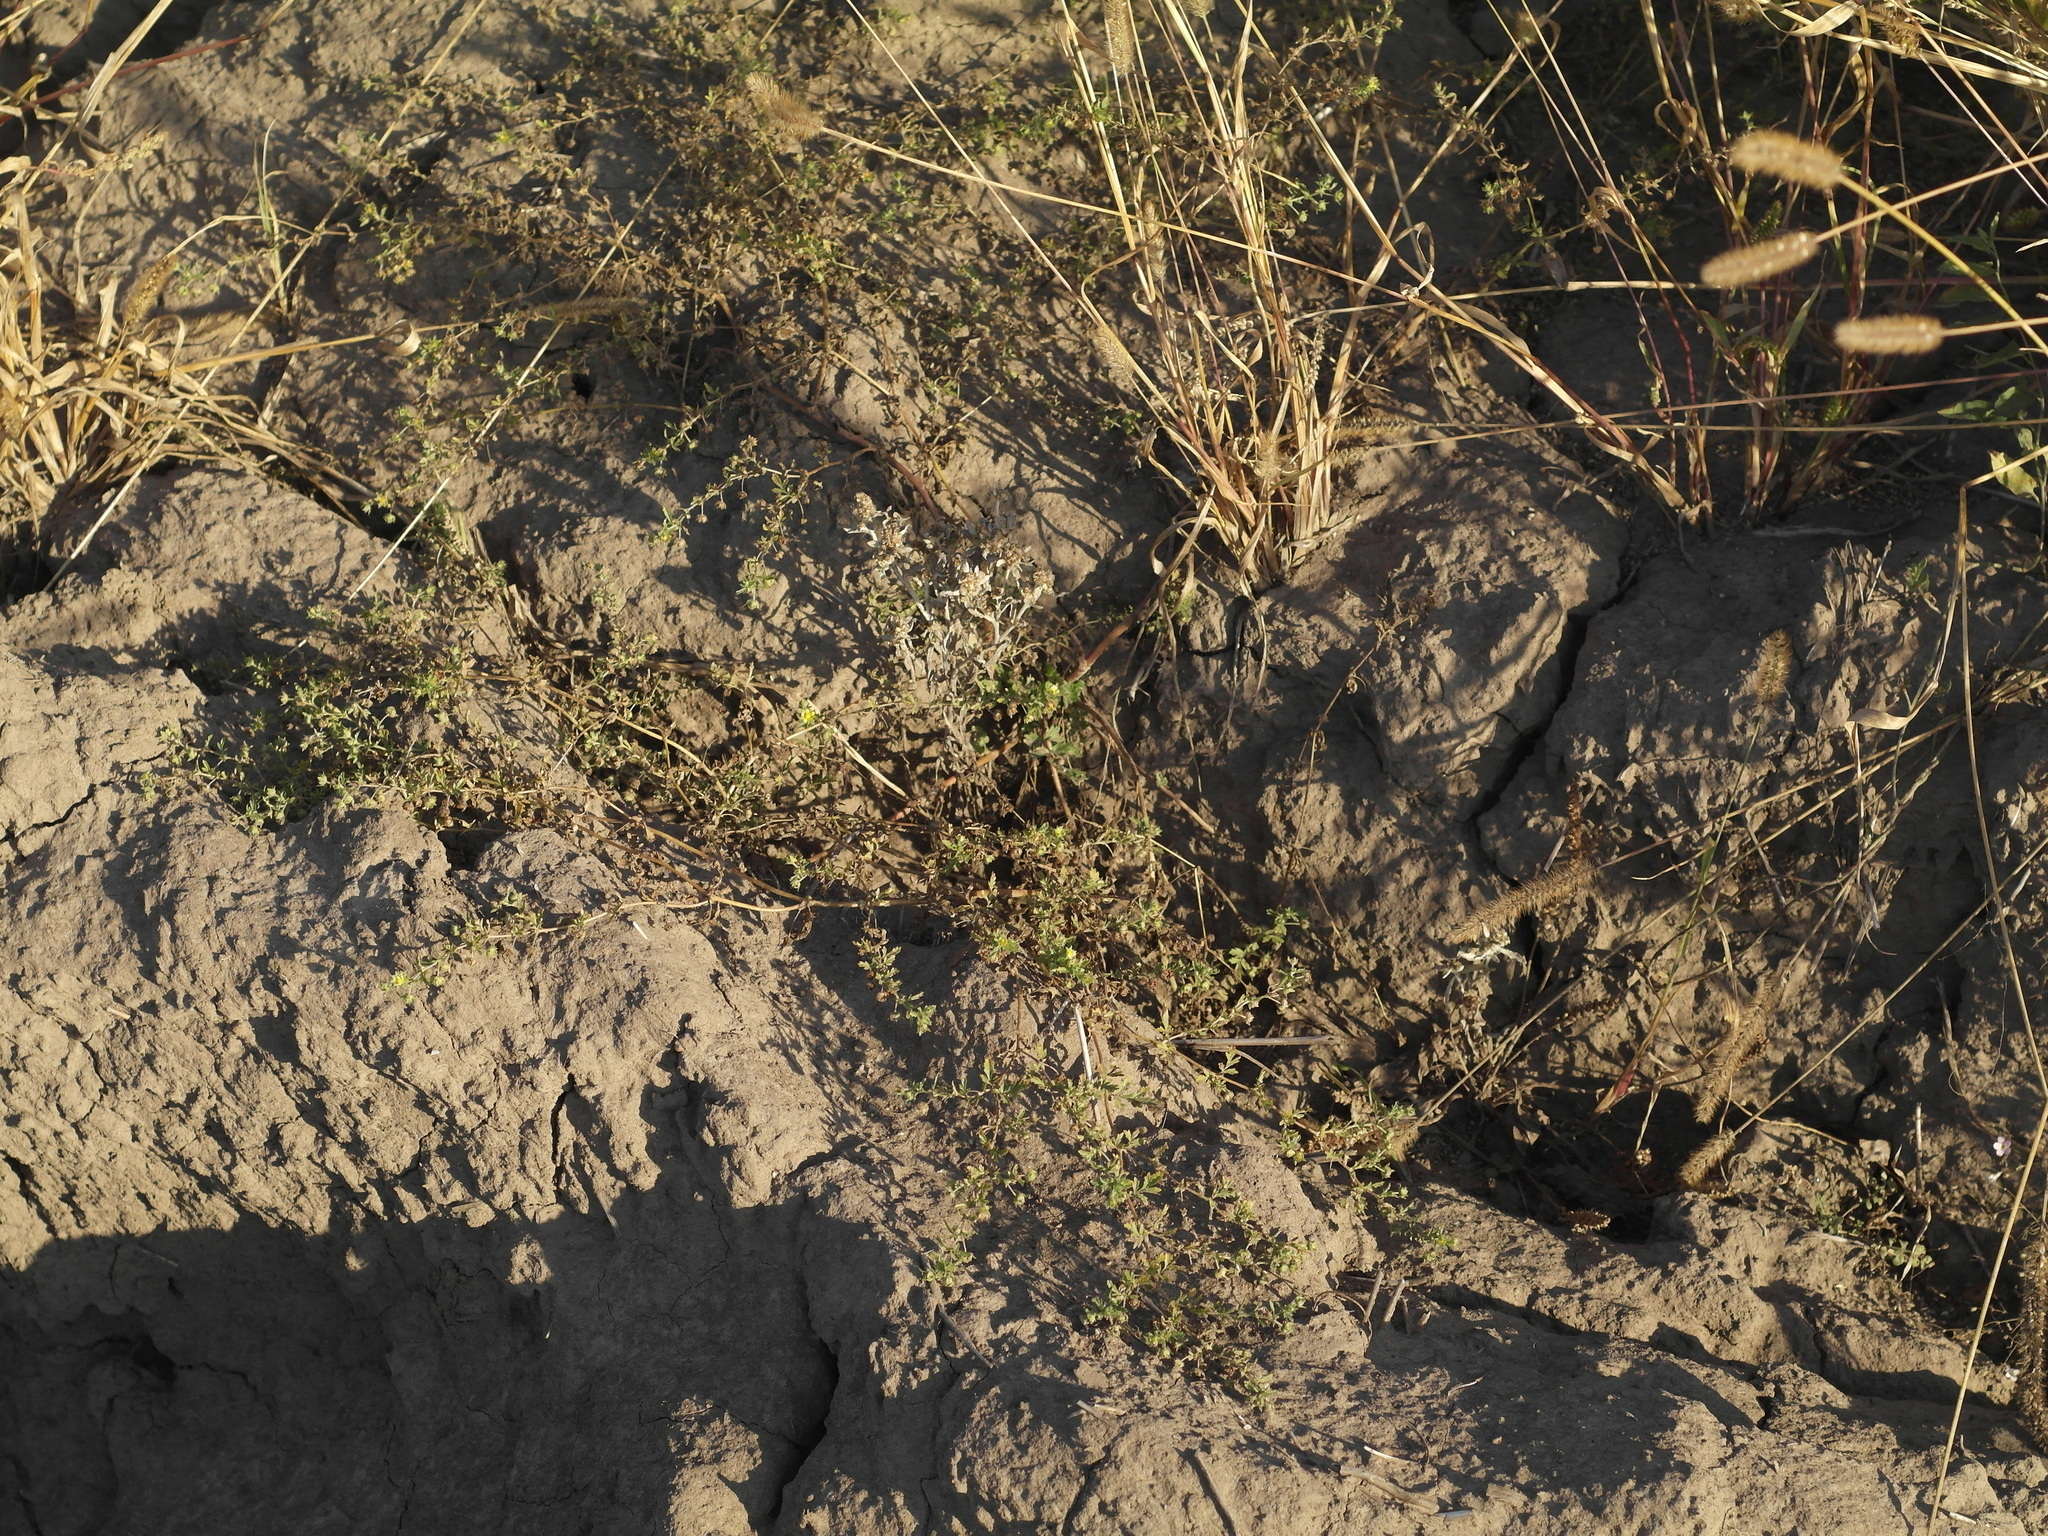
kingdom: Plantae
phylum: Tracheophyta
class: Magnoliopsida
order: Rosales
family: Rosaceae
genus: Potentilla
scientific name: Potentilla supina
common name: Prostrate cinquefoil
